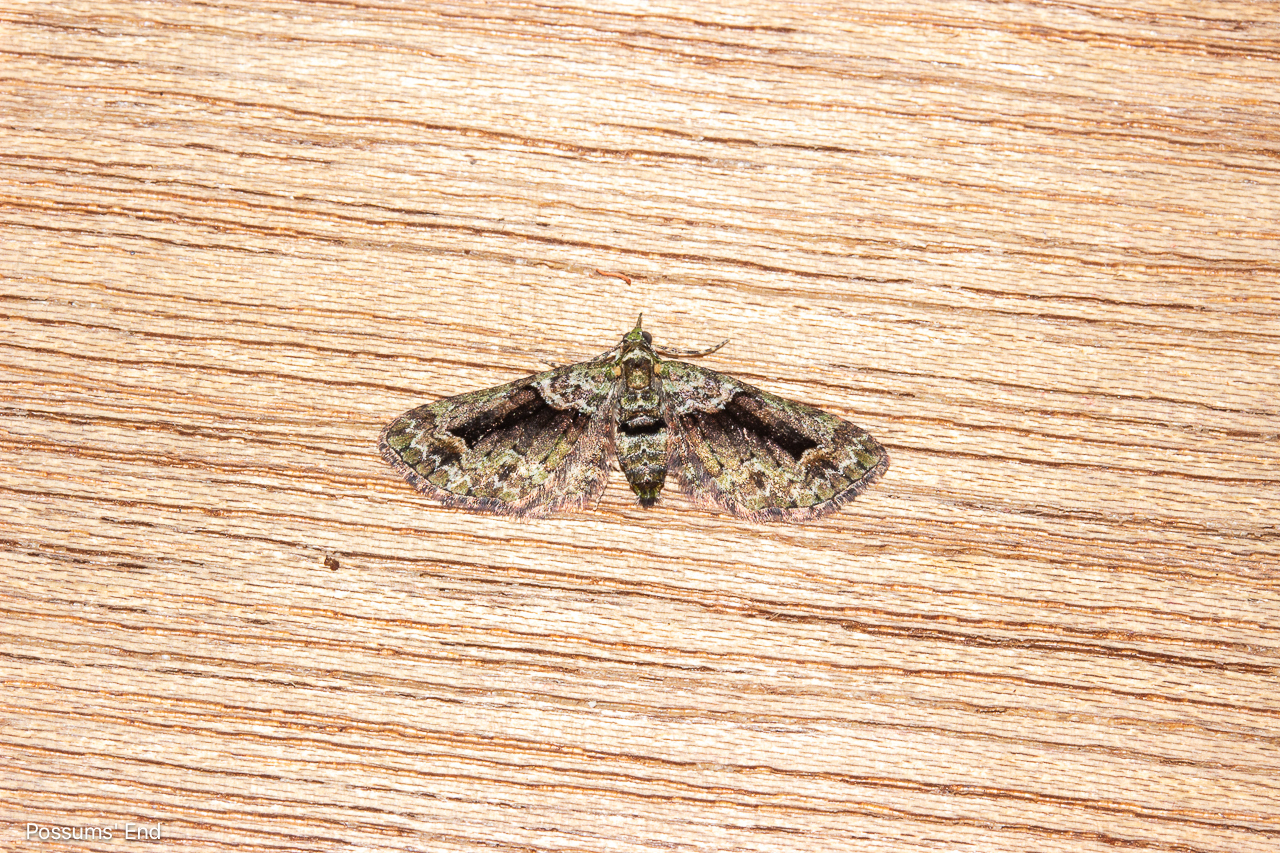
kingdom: Animalia
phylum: Arthropoda
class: Insecta
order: Lepidoptera
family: Geometridae
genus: Pasiphila
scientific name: Pasiphila suffusa
